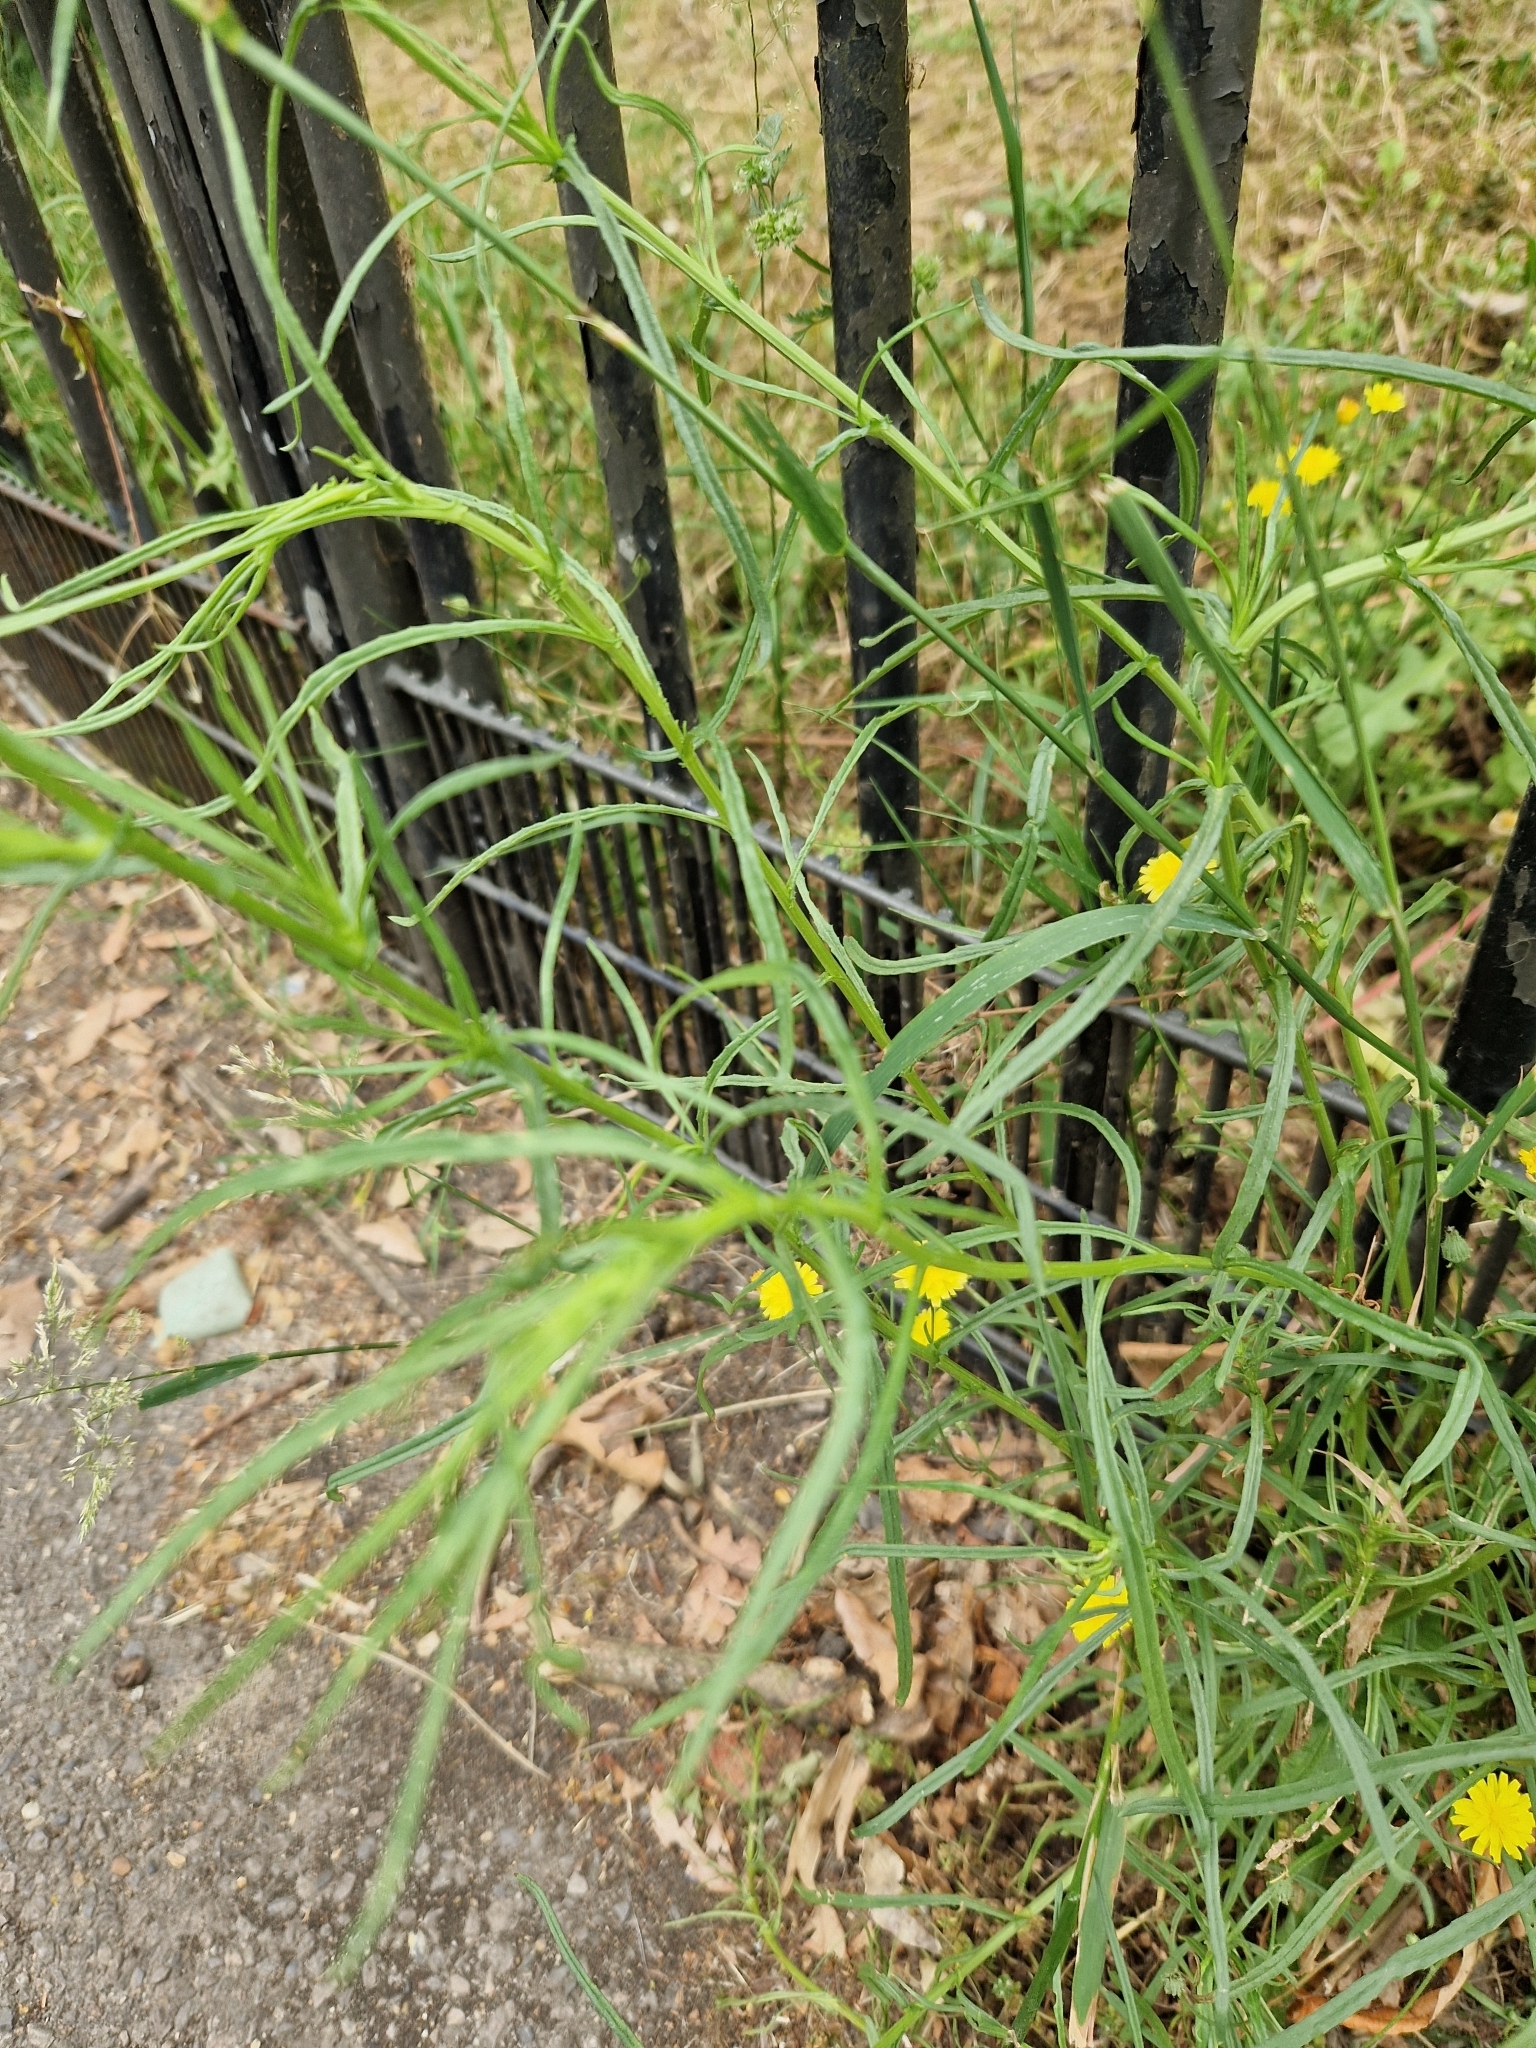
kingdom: Plantae
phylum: Tracheophyta
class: Magnoliopsida
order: Asterales
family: Asteraceae
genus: Senecio
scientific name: Senecio inaequidens
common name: Narrow-leaved ragwort
